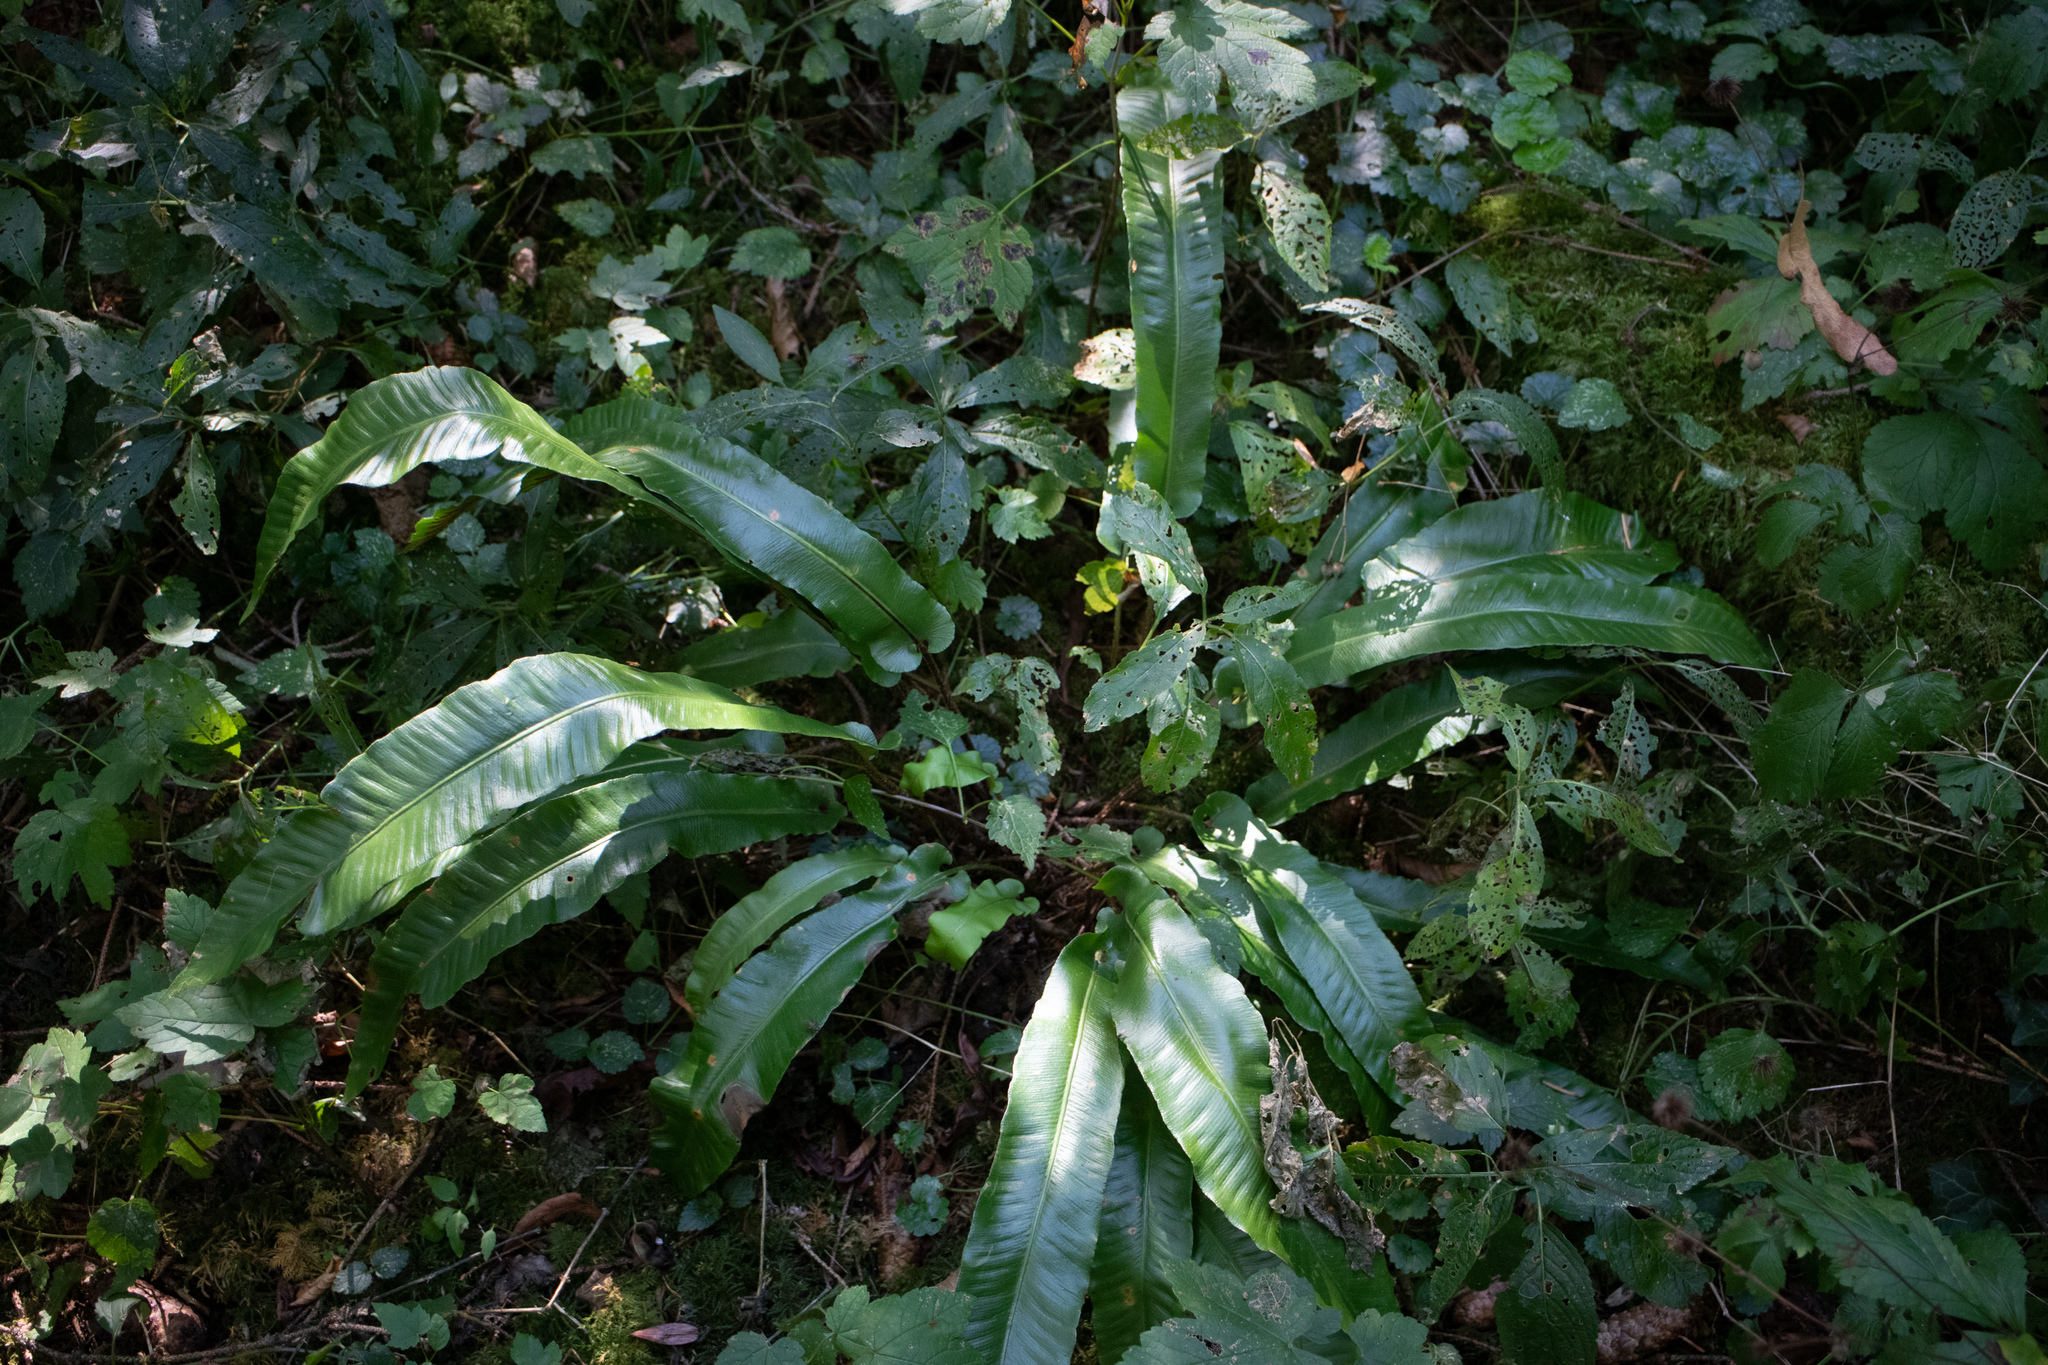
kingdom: Plantae
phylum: Tracheophyta
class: Polypodiopsida
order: Polypodiales
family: Aspleniaceae
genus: Asplenium
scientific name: Asplenium scolopendrium
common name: Hart's-tongue fern
